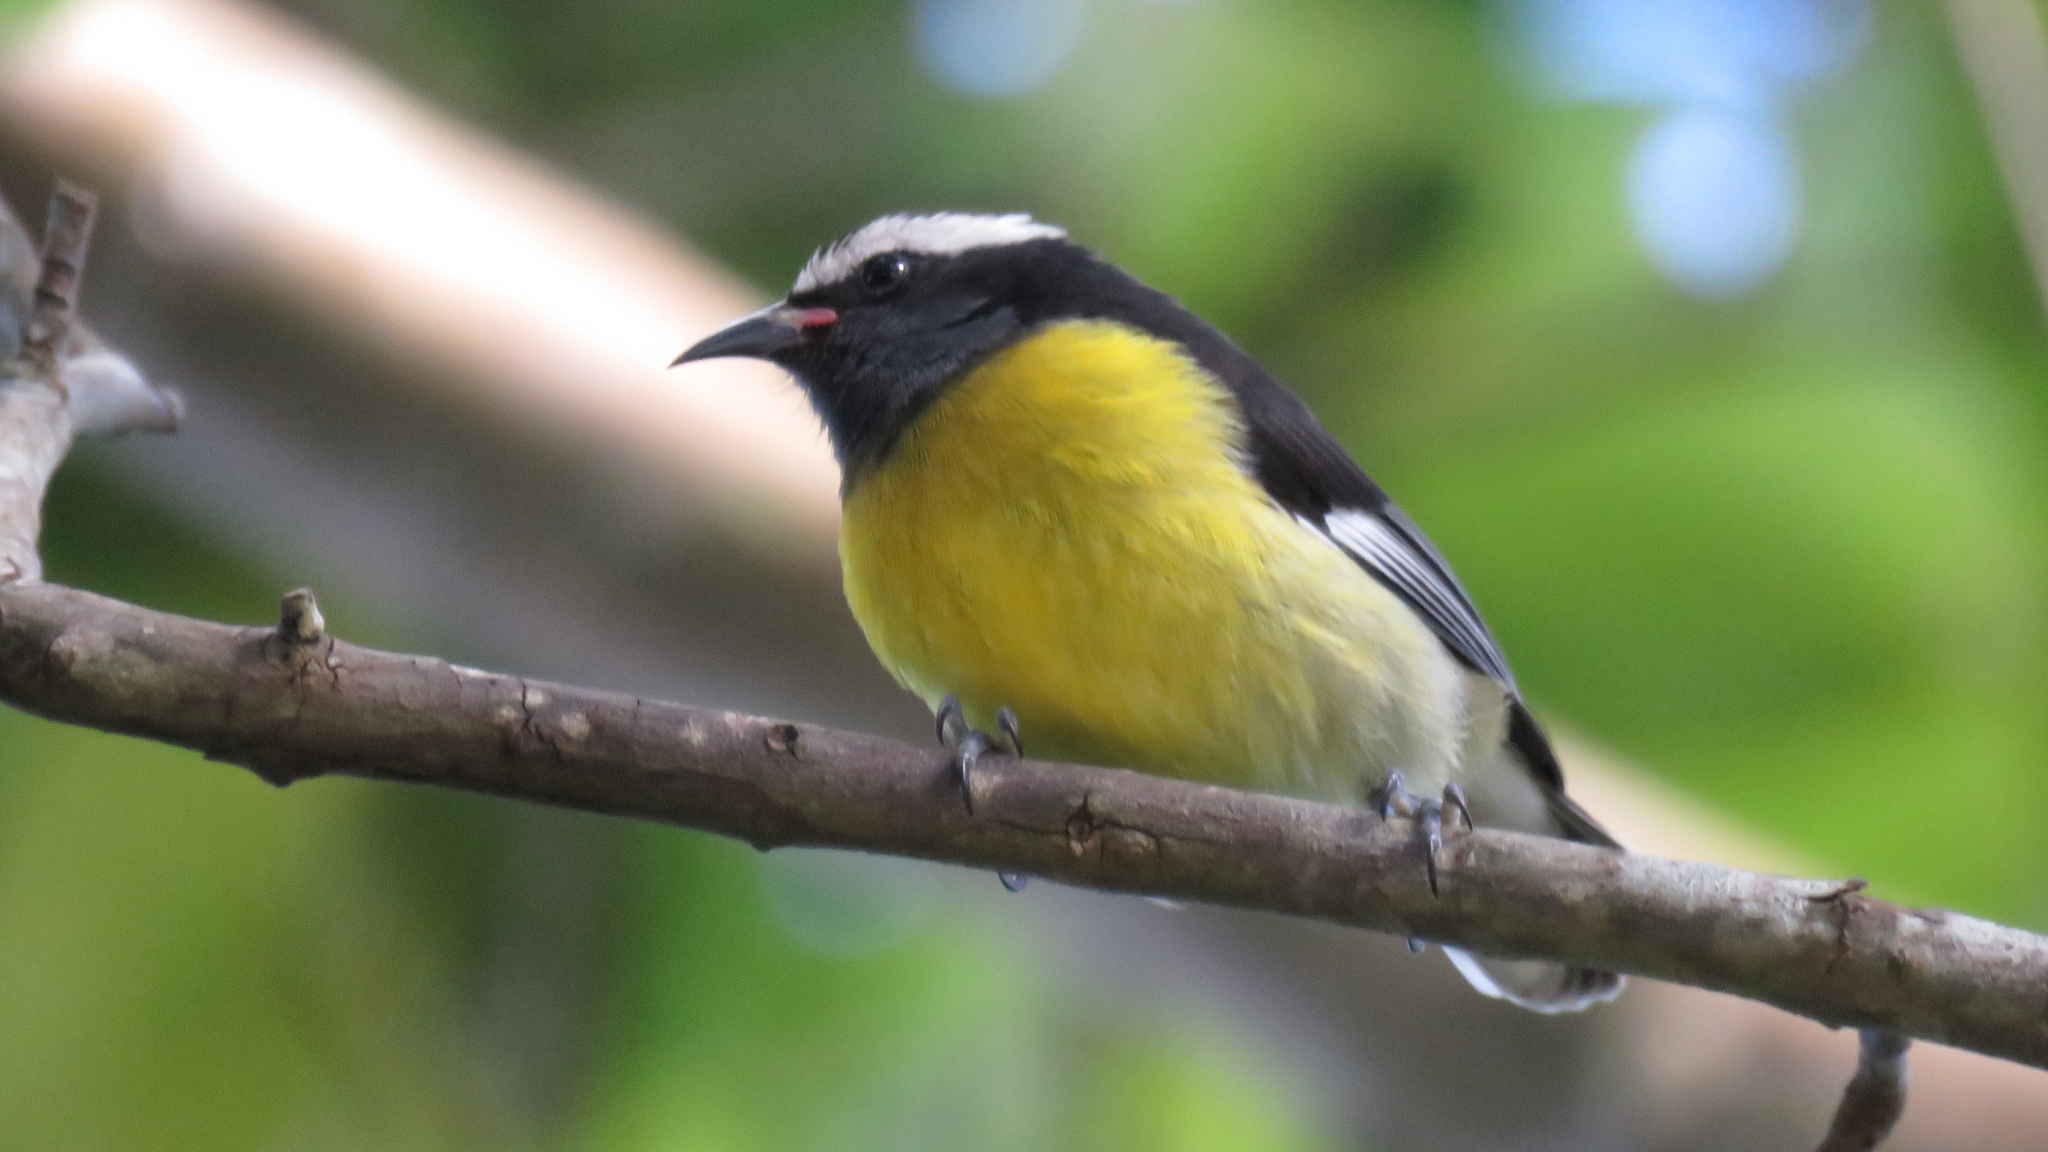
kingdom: Animalia
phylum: Chordata
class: Aves
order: Passeriformes
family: Thraupidae
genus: Coereba
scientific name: Coereba flaveola
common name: Bananaquit
